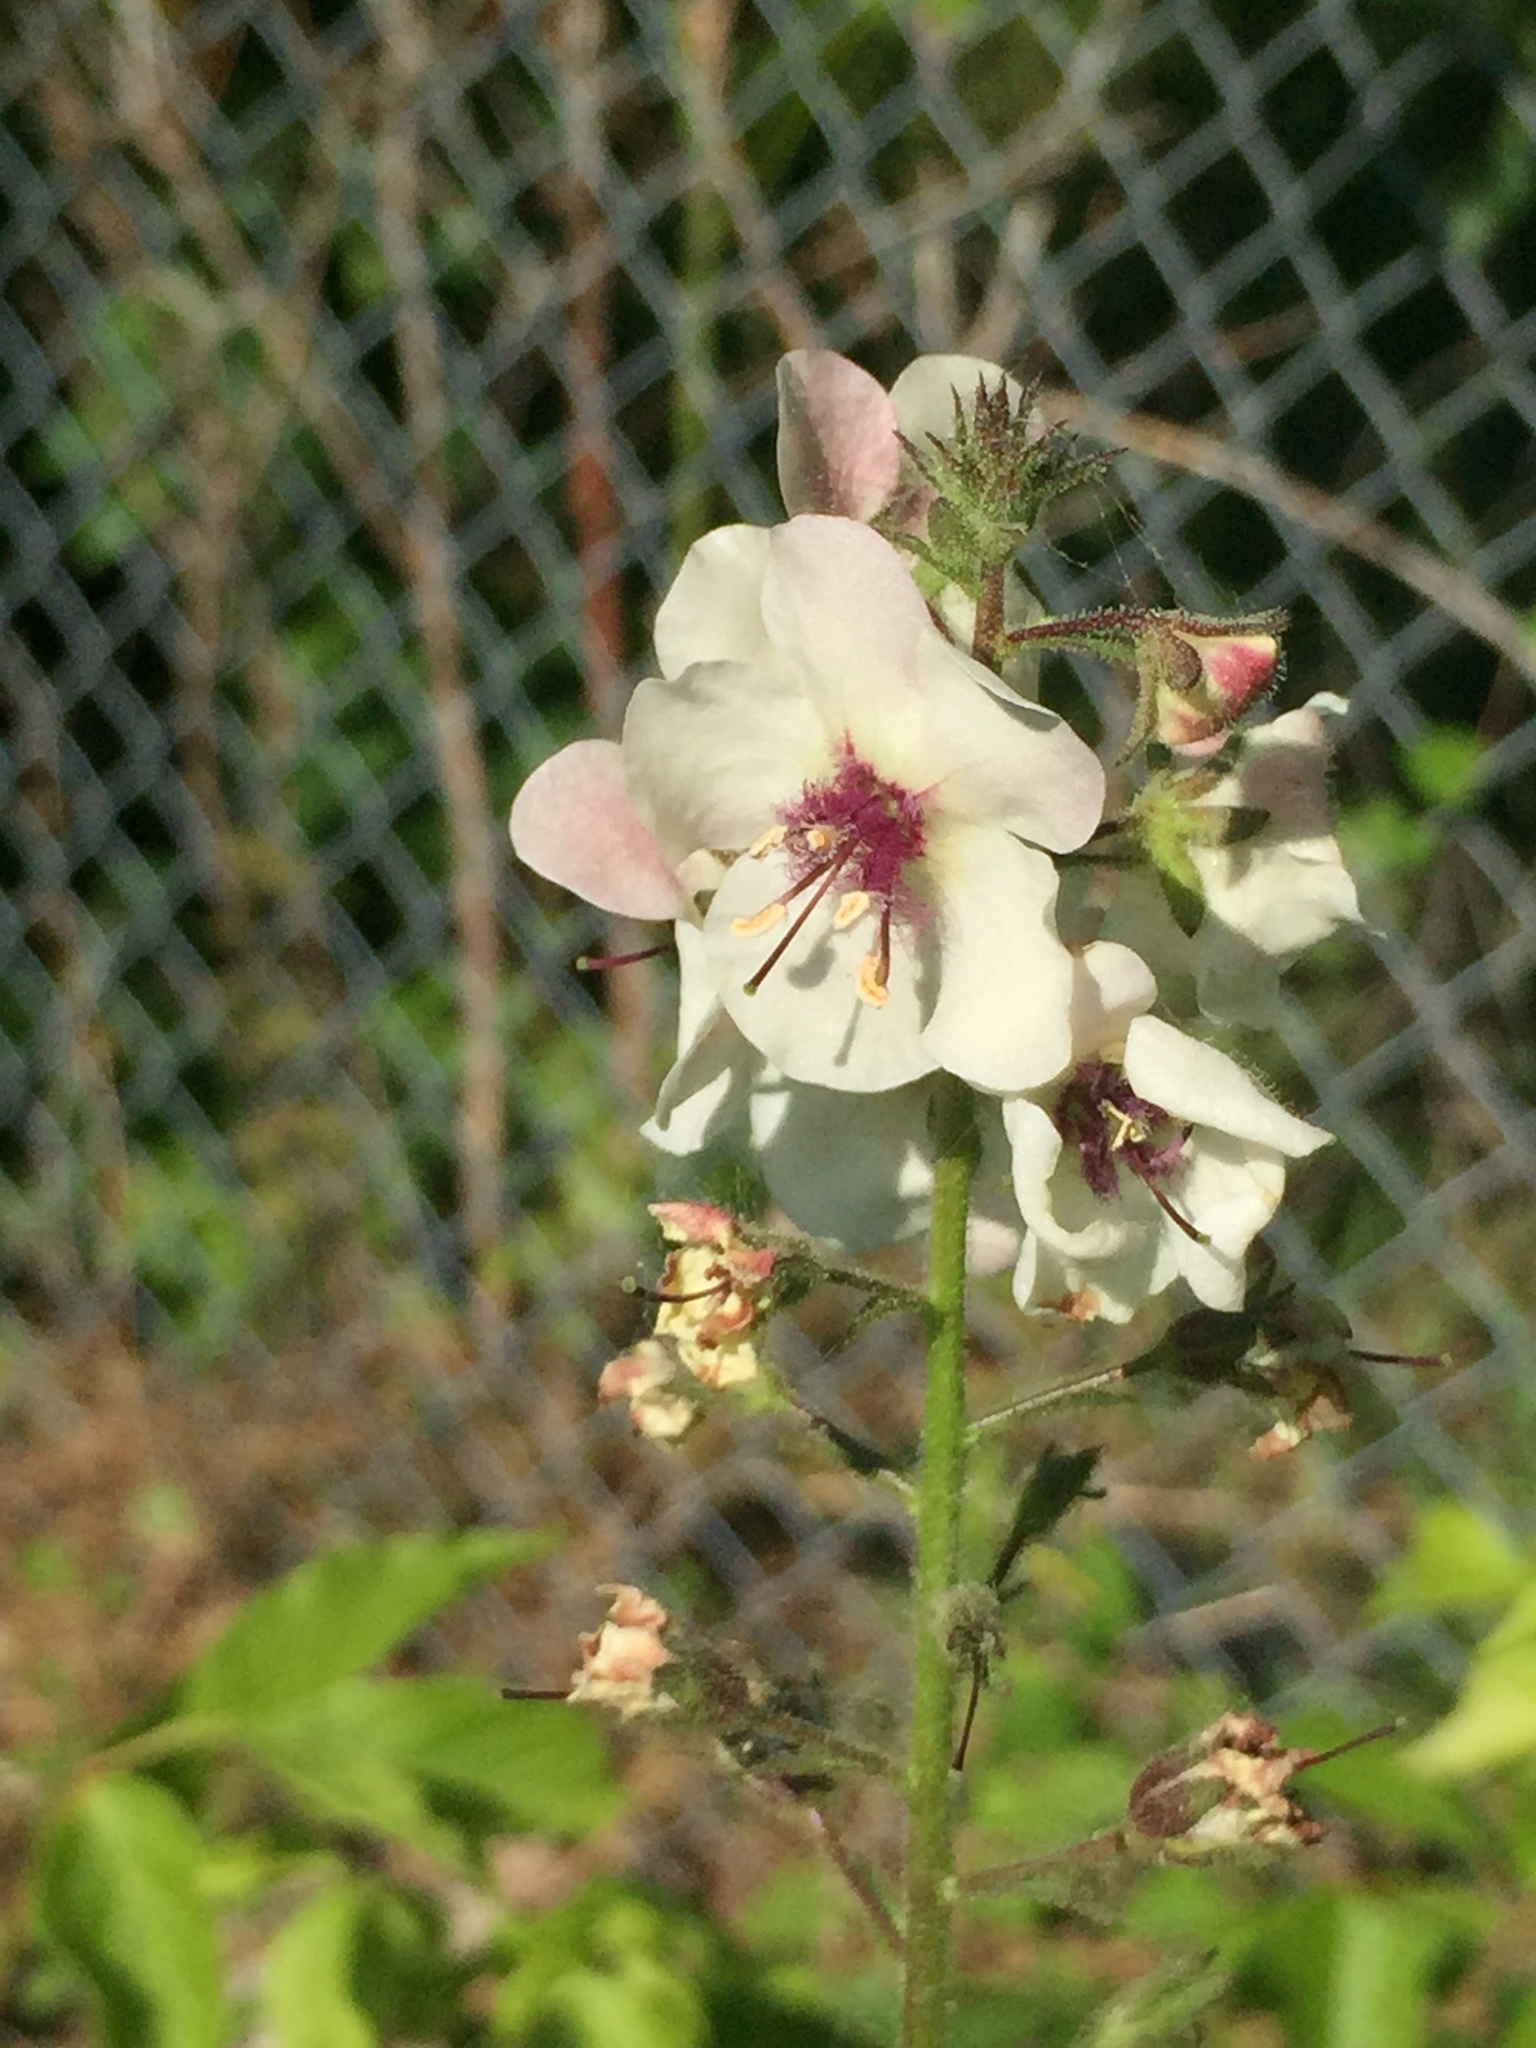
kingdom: Plantae
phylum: Tracheophyta
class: Magnoliopsida
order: Lamiales
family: Scrophulariaceae
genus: Verbascum
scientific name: Verbascum blattaria
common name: Moth mullein
